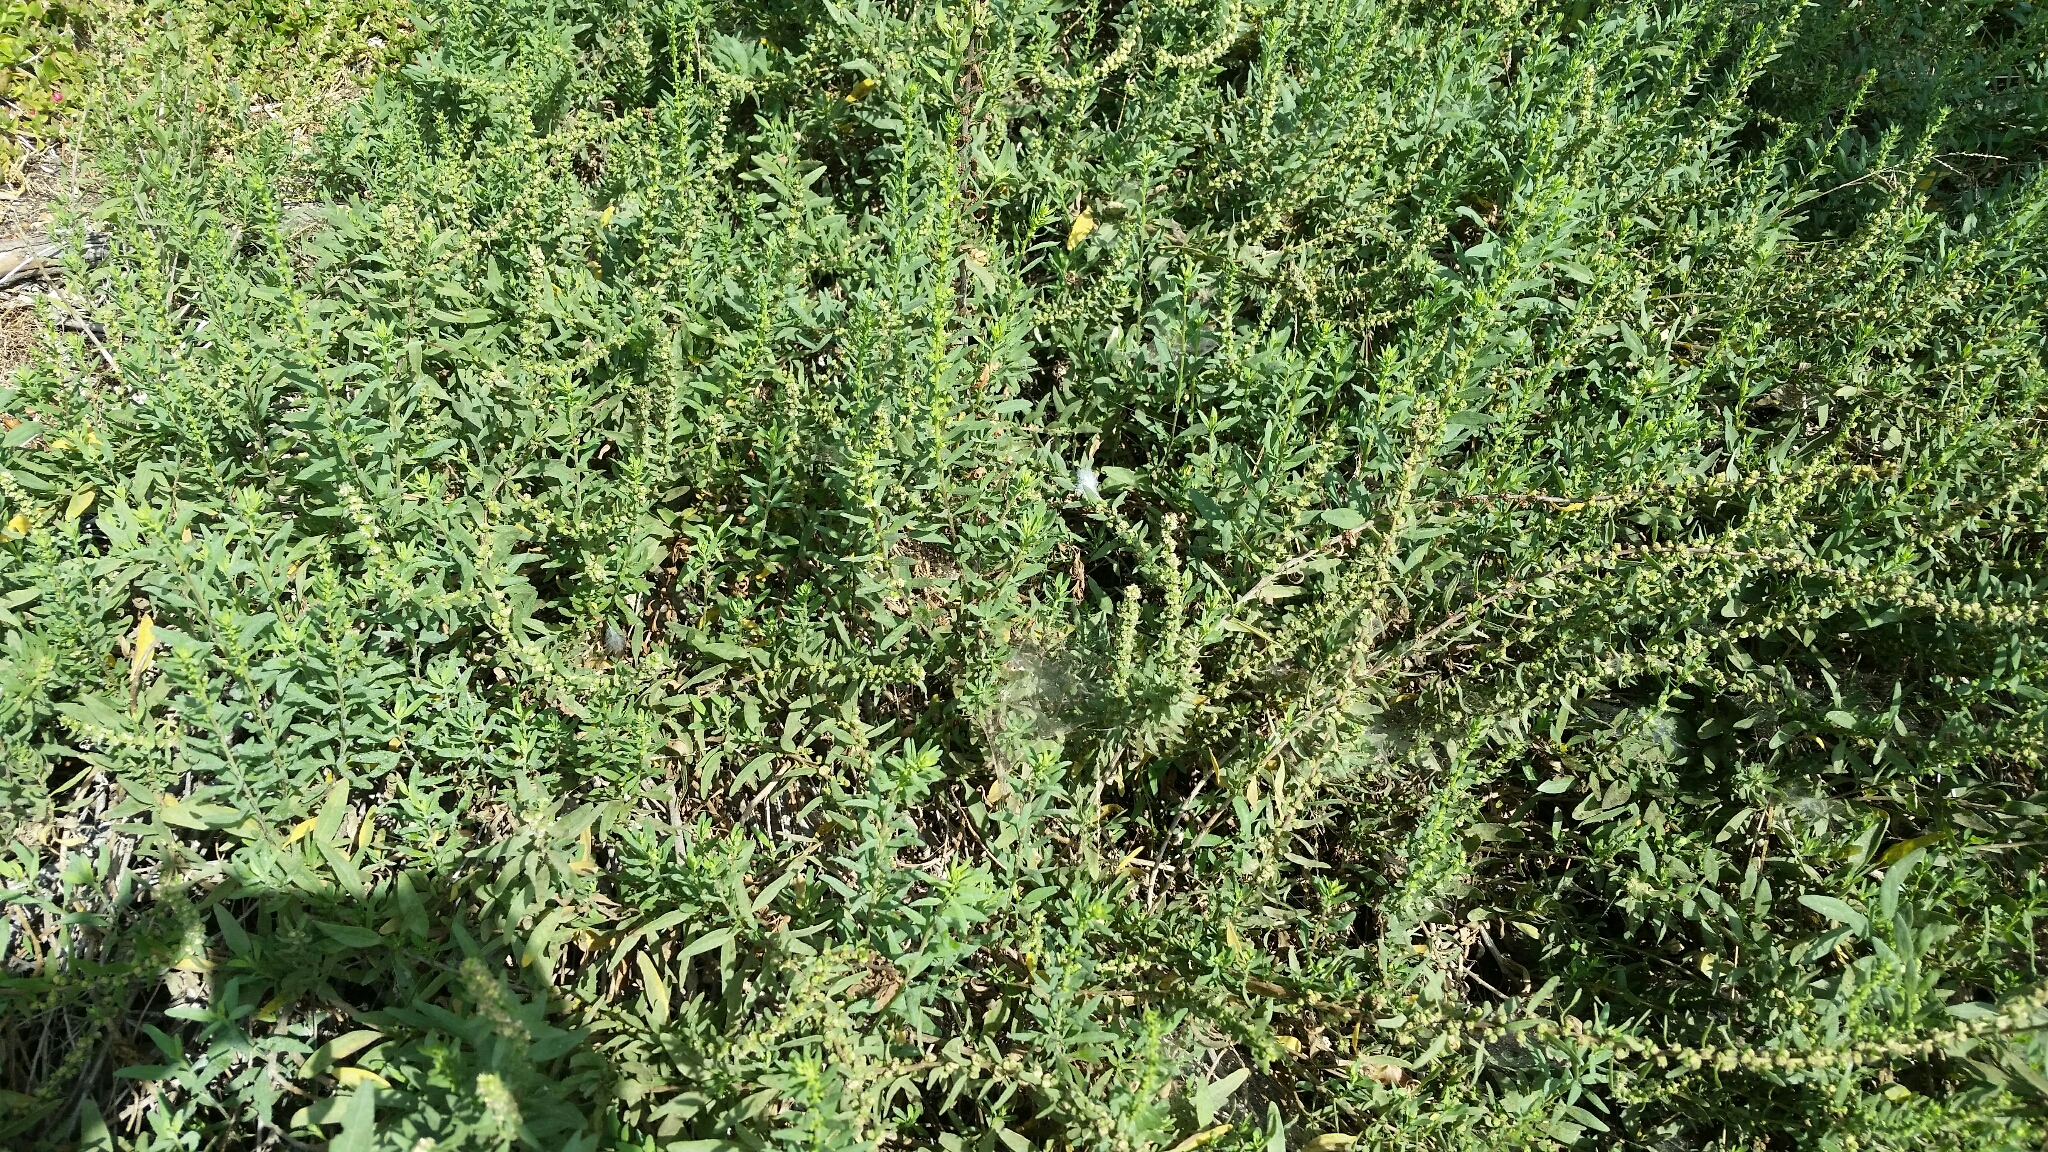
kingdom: Plantae
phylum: Tracheophyta
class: Magnoliopsida
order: Asterales
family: Asteraceae
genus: Iva
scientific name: Iva hayesiana
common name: San diego marsh-elder
